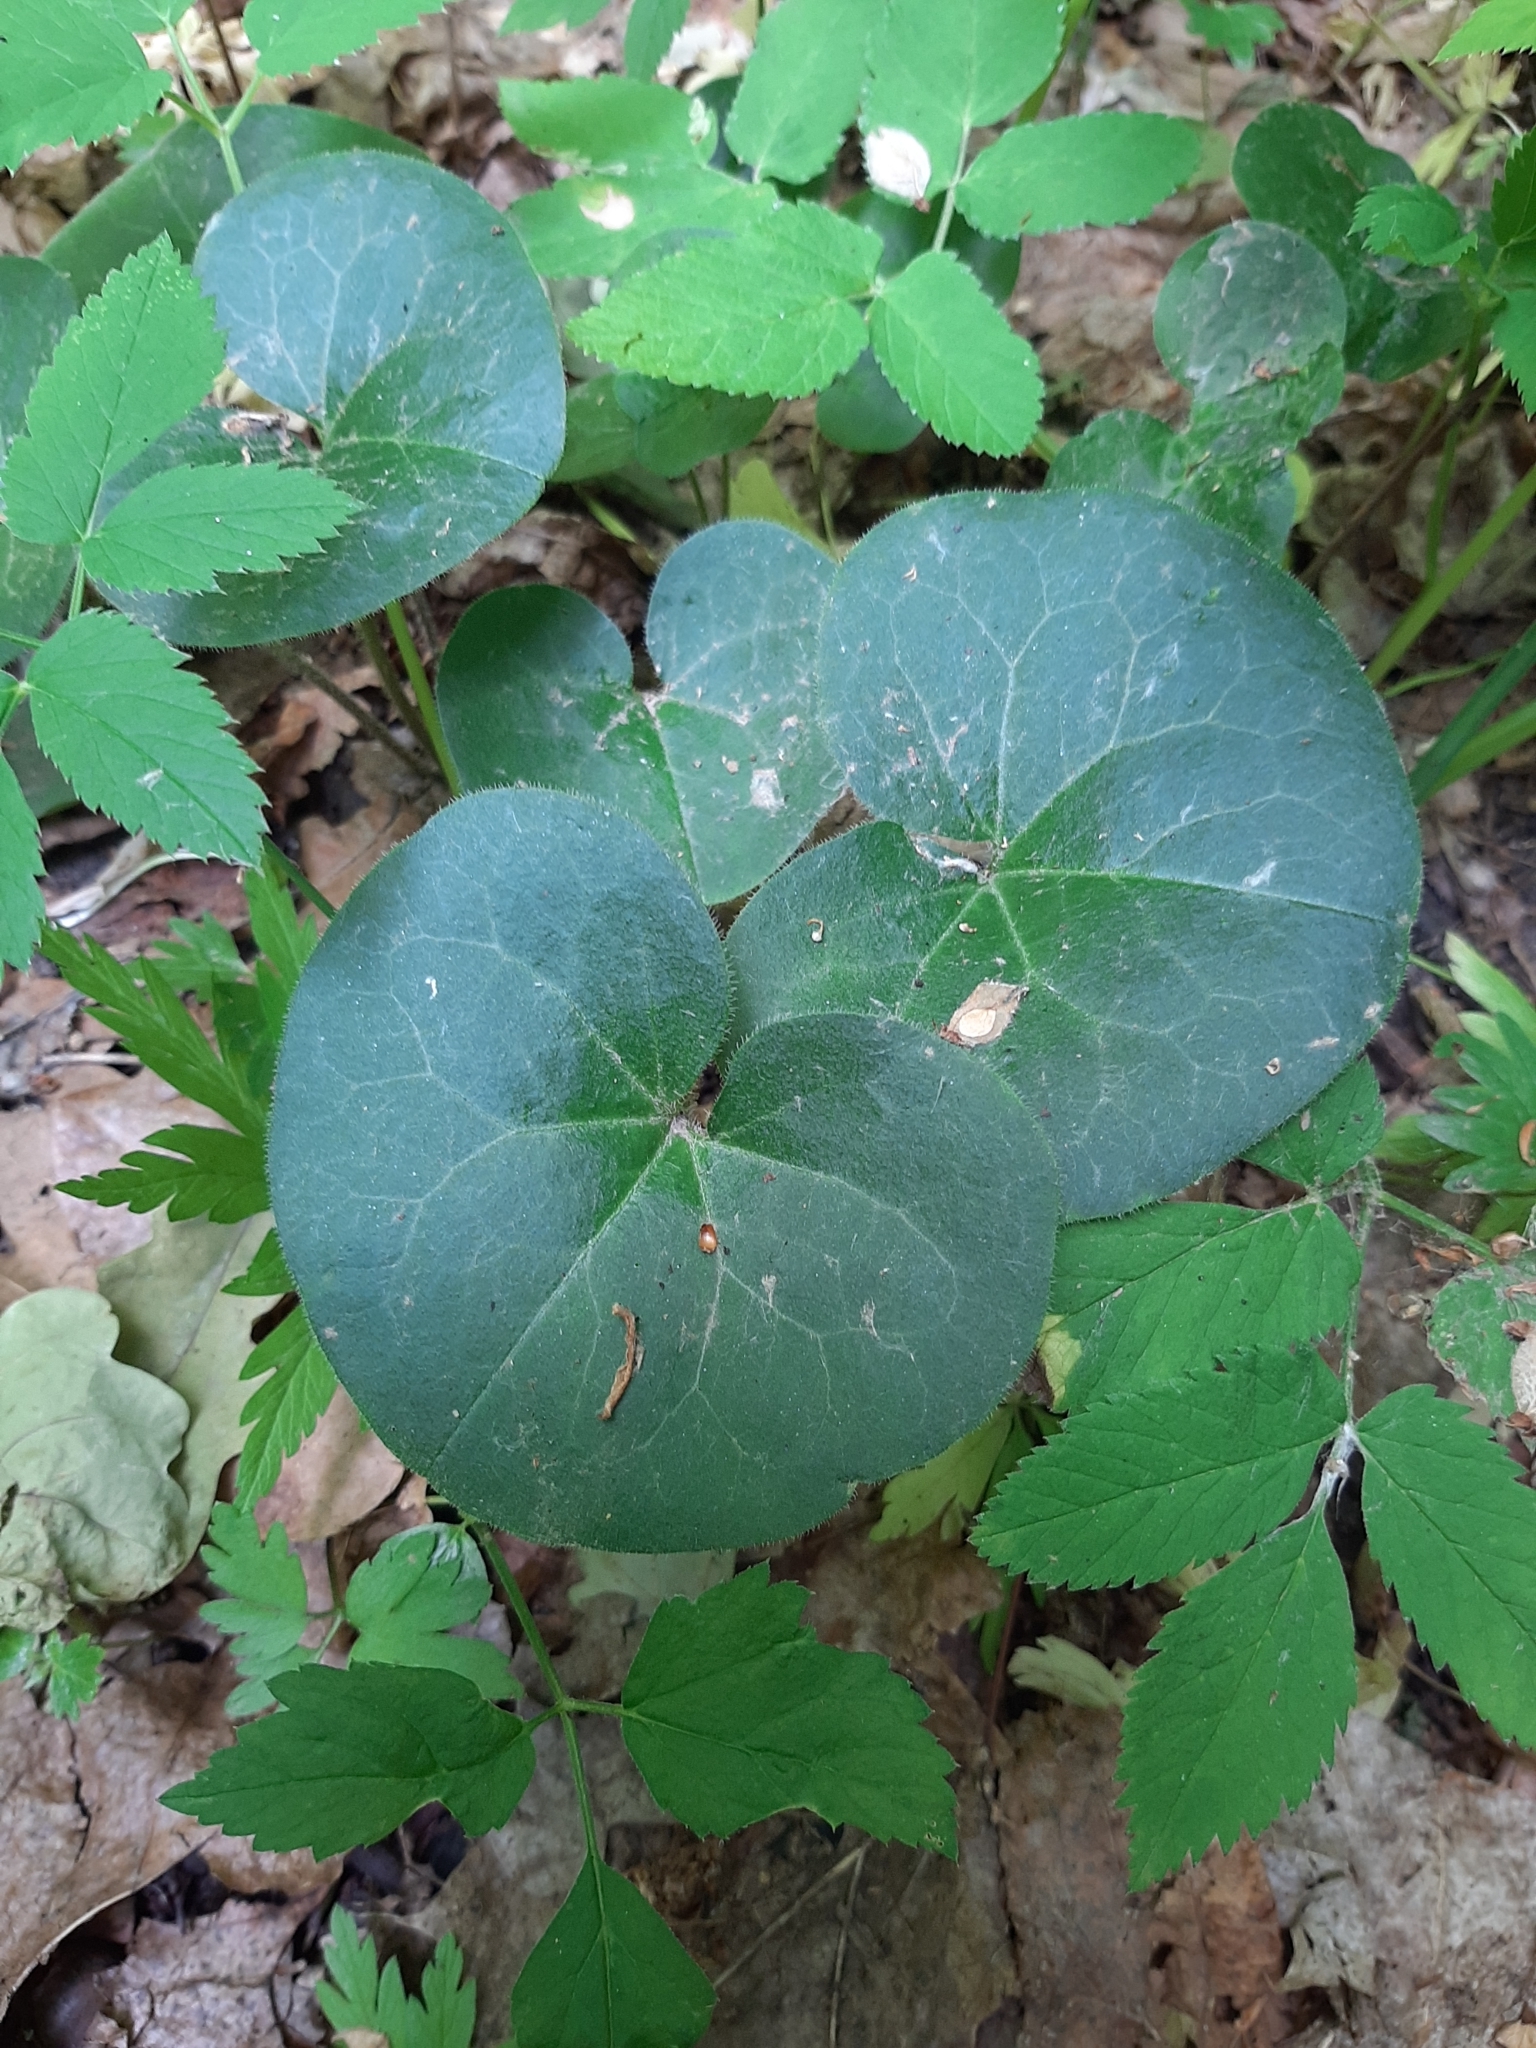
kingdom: Plantae
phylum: Tracheophyta
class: Magnoliopsida
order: Piperales
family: Aristolochiaceae
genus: Asarum
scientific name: Asarum europaeum
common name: Asarabacca
